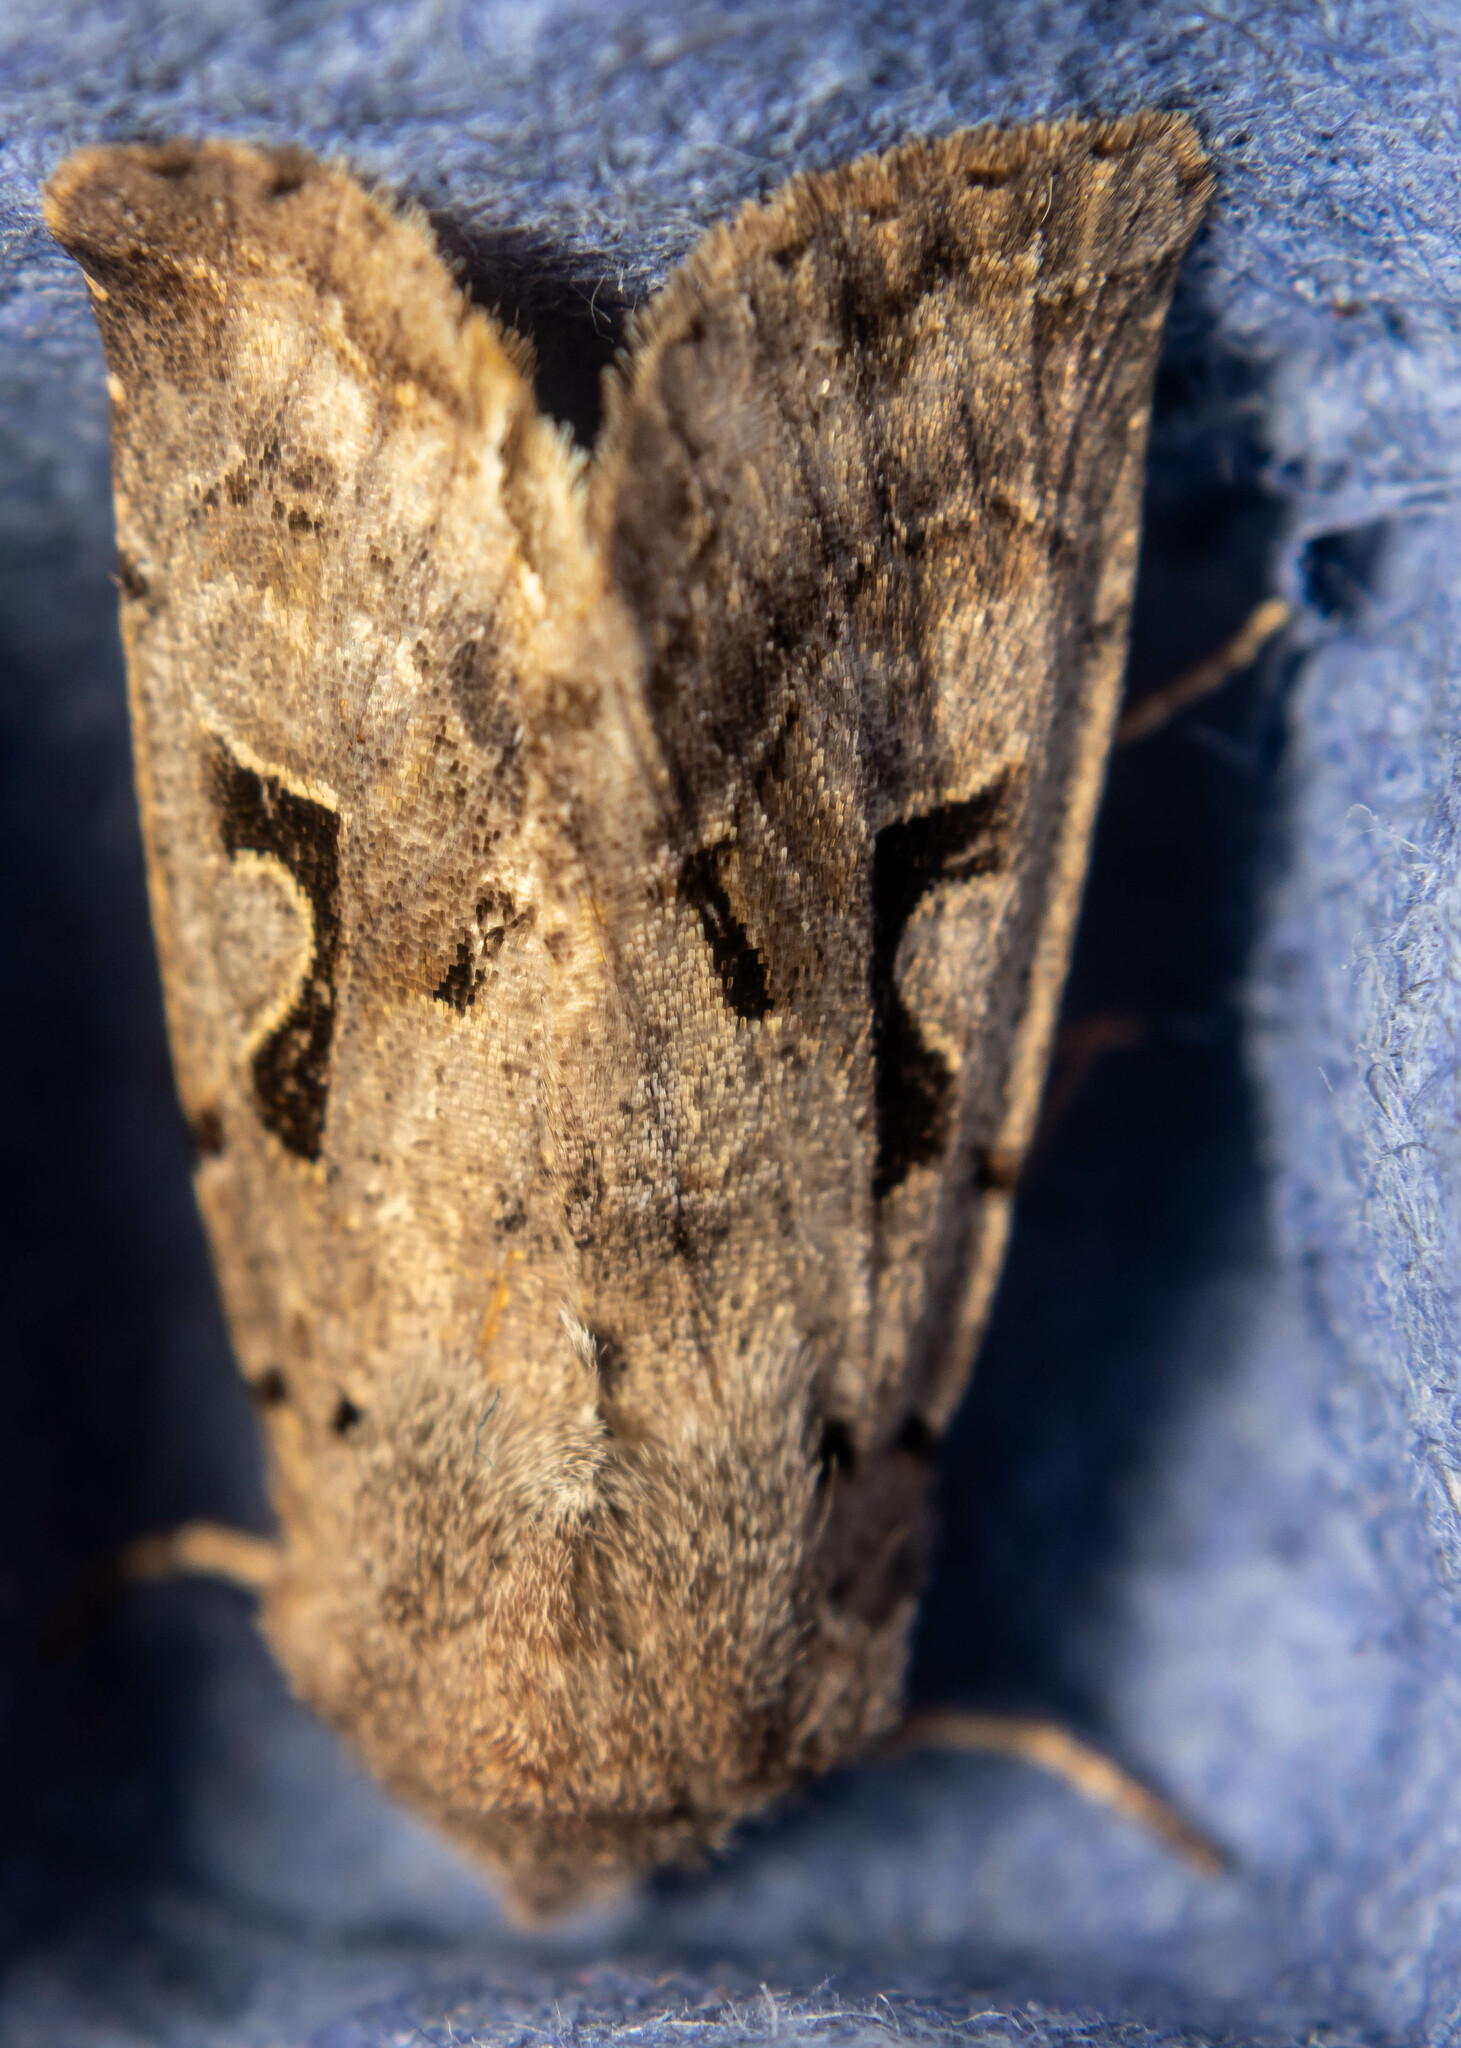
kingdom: Animalia
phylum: Arthropoda
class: Insecta
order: Lepidoptera
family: Noctuidae
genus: Orthosia
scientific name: Orthosia gothica
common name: Hebrew character
